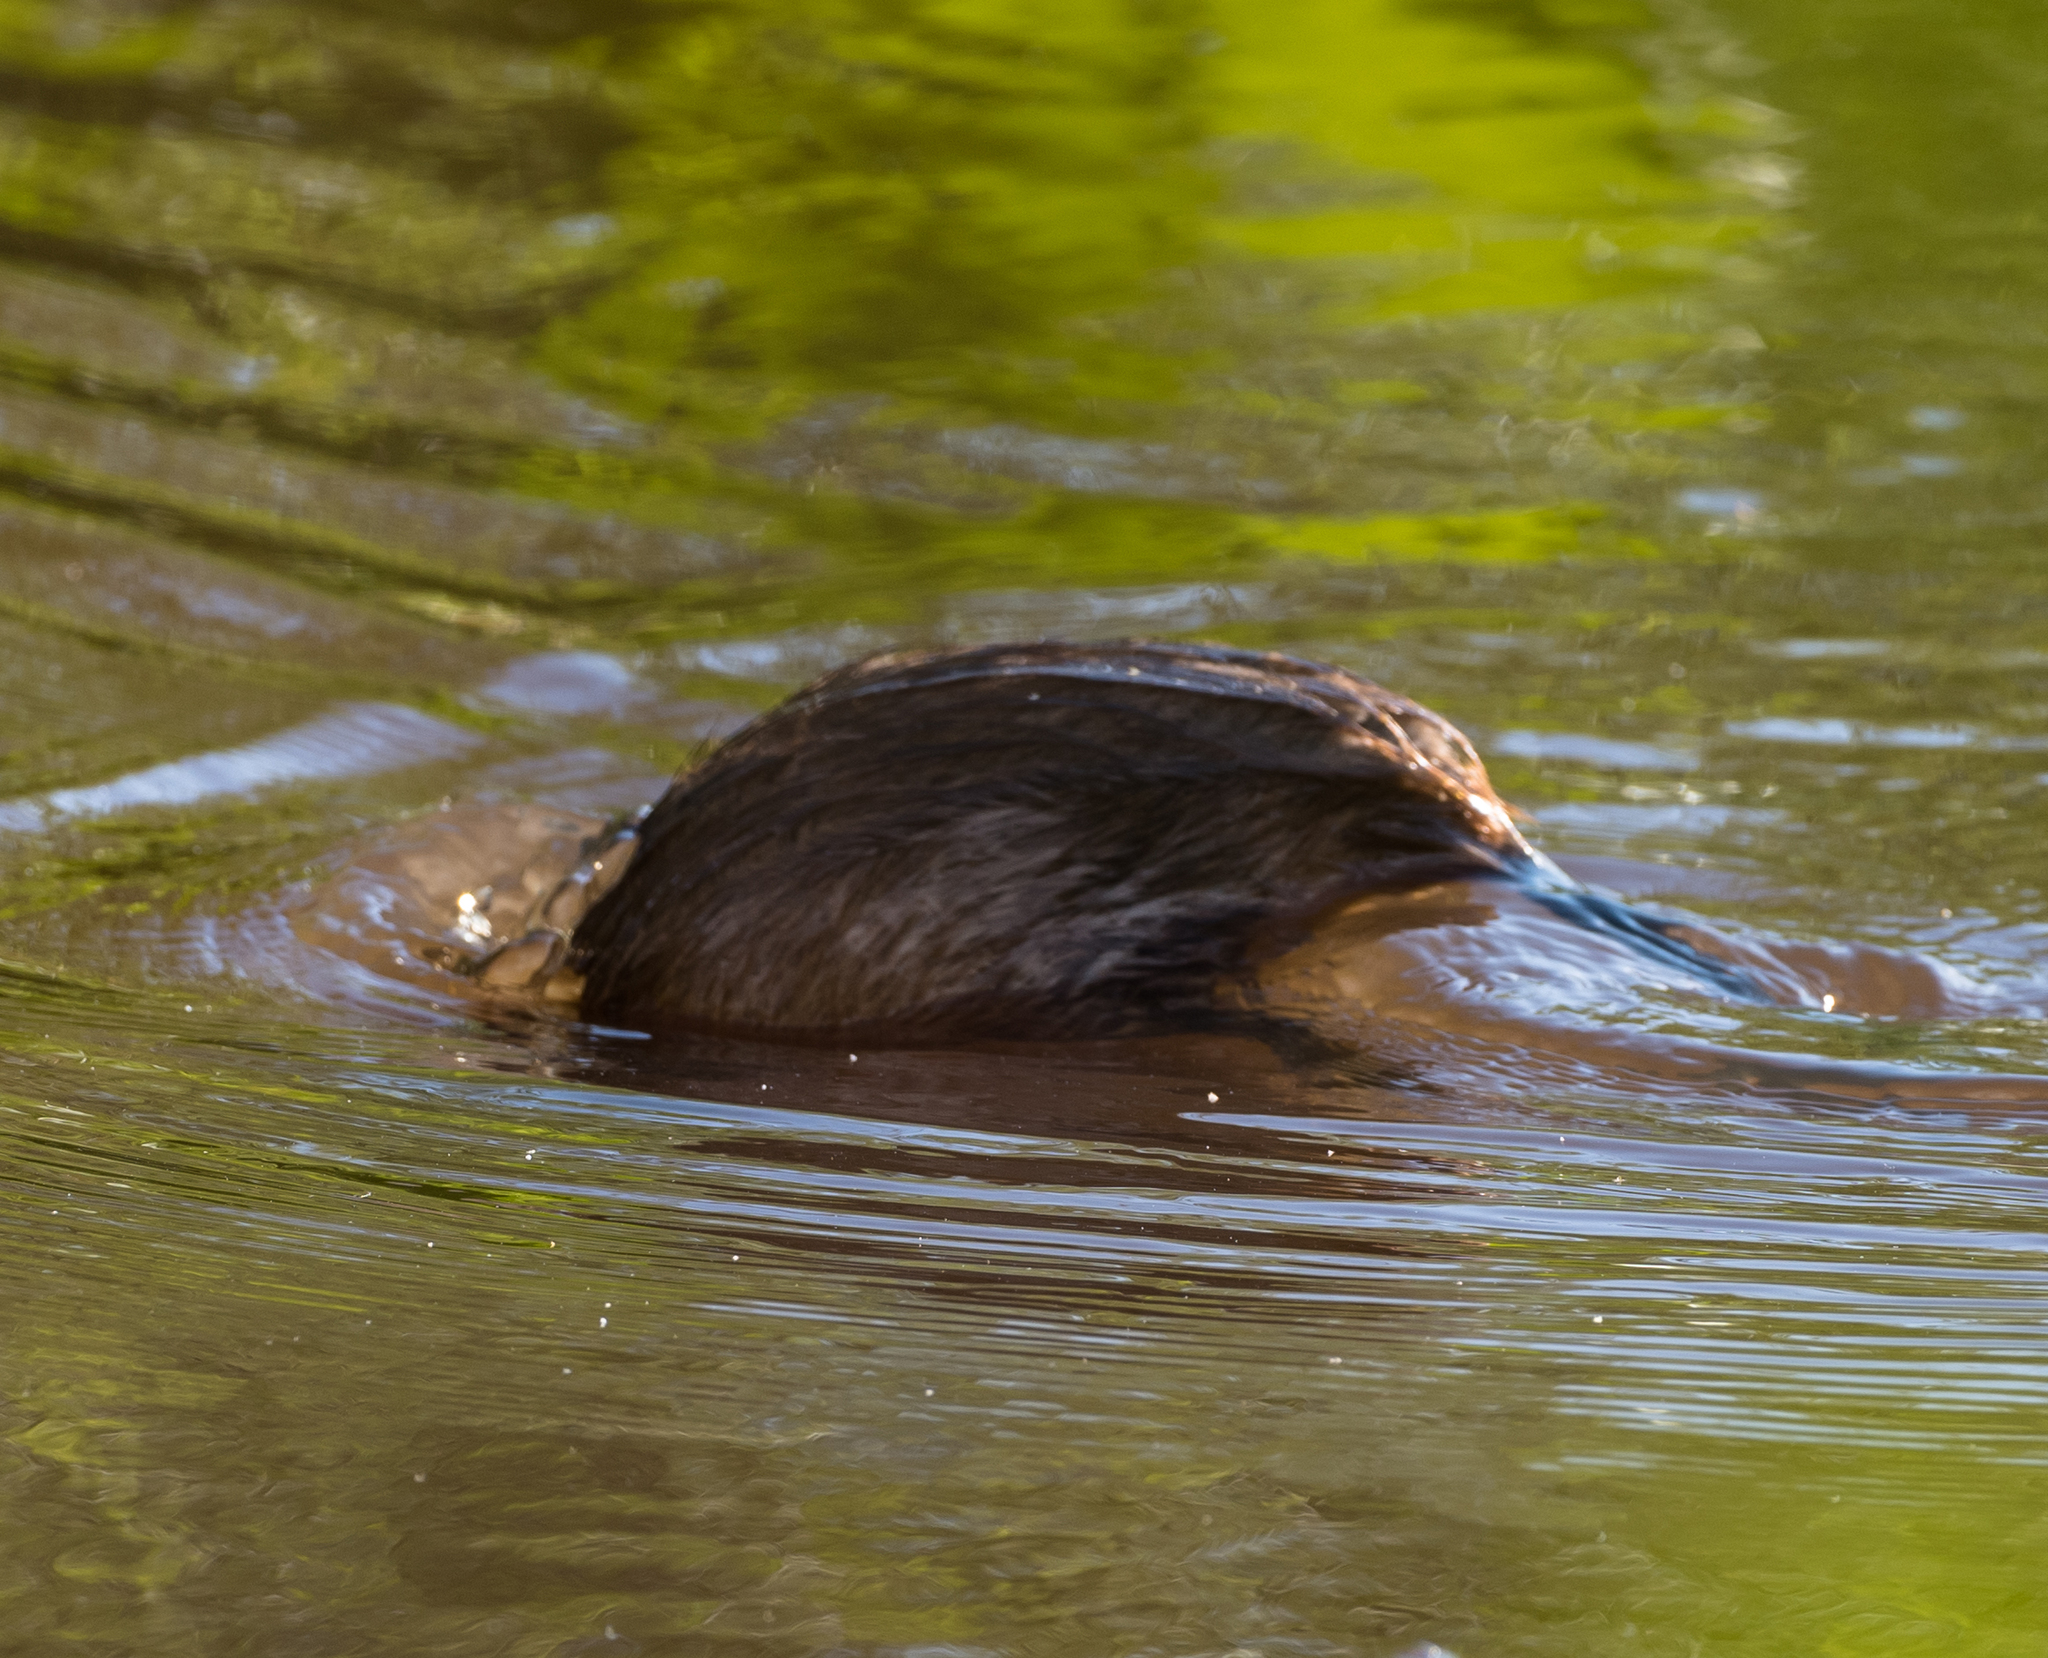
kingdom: Animalia
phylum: Chordata
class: Mammalia
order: Rodentia
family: Cricetidae
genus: Ondatra
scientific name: Ondatra zibethicus
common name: Muskrat
